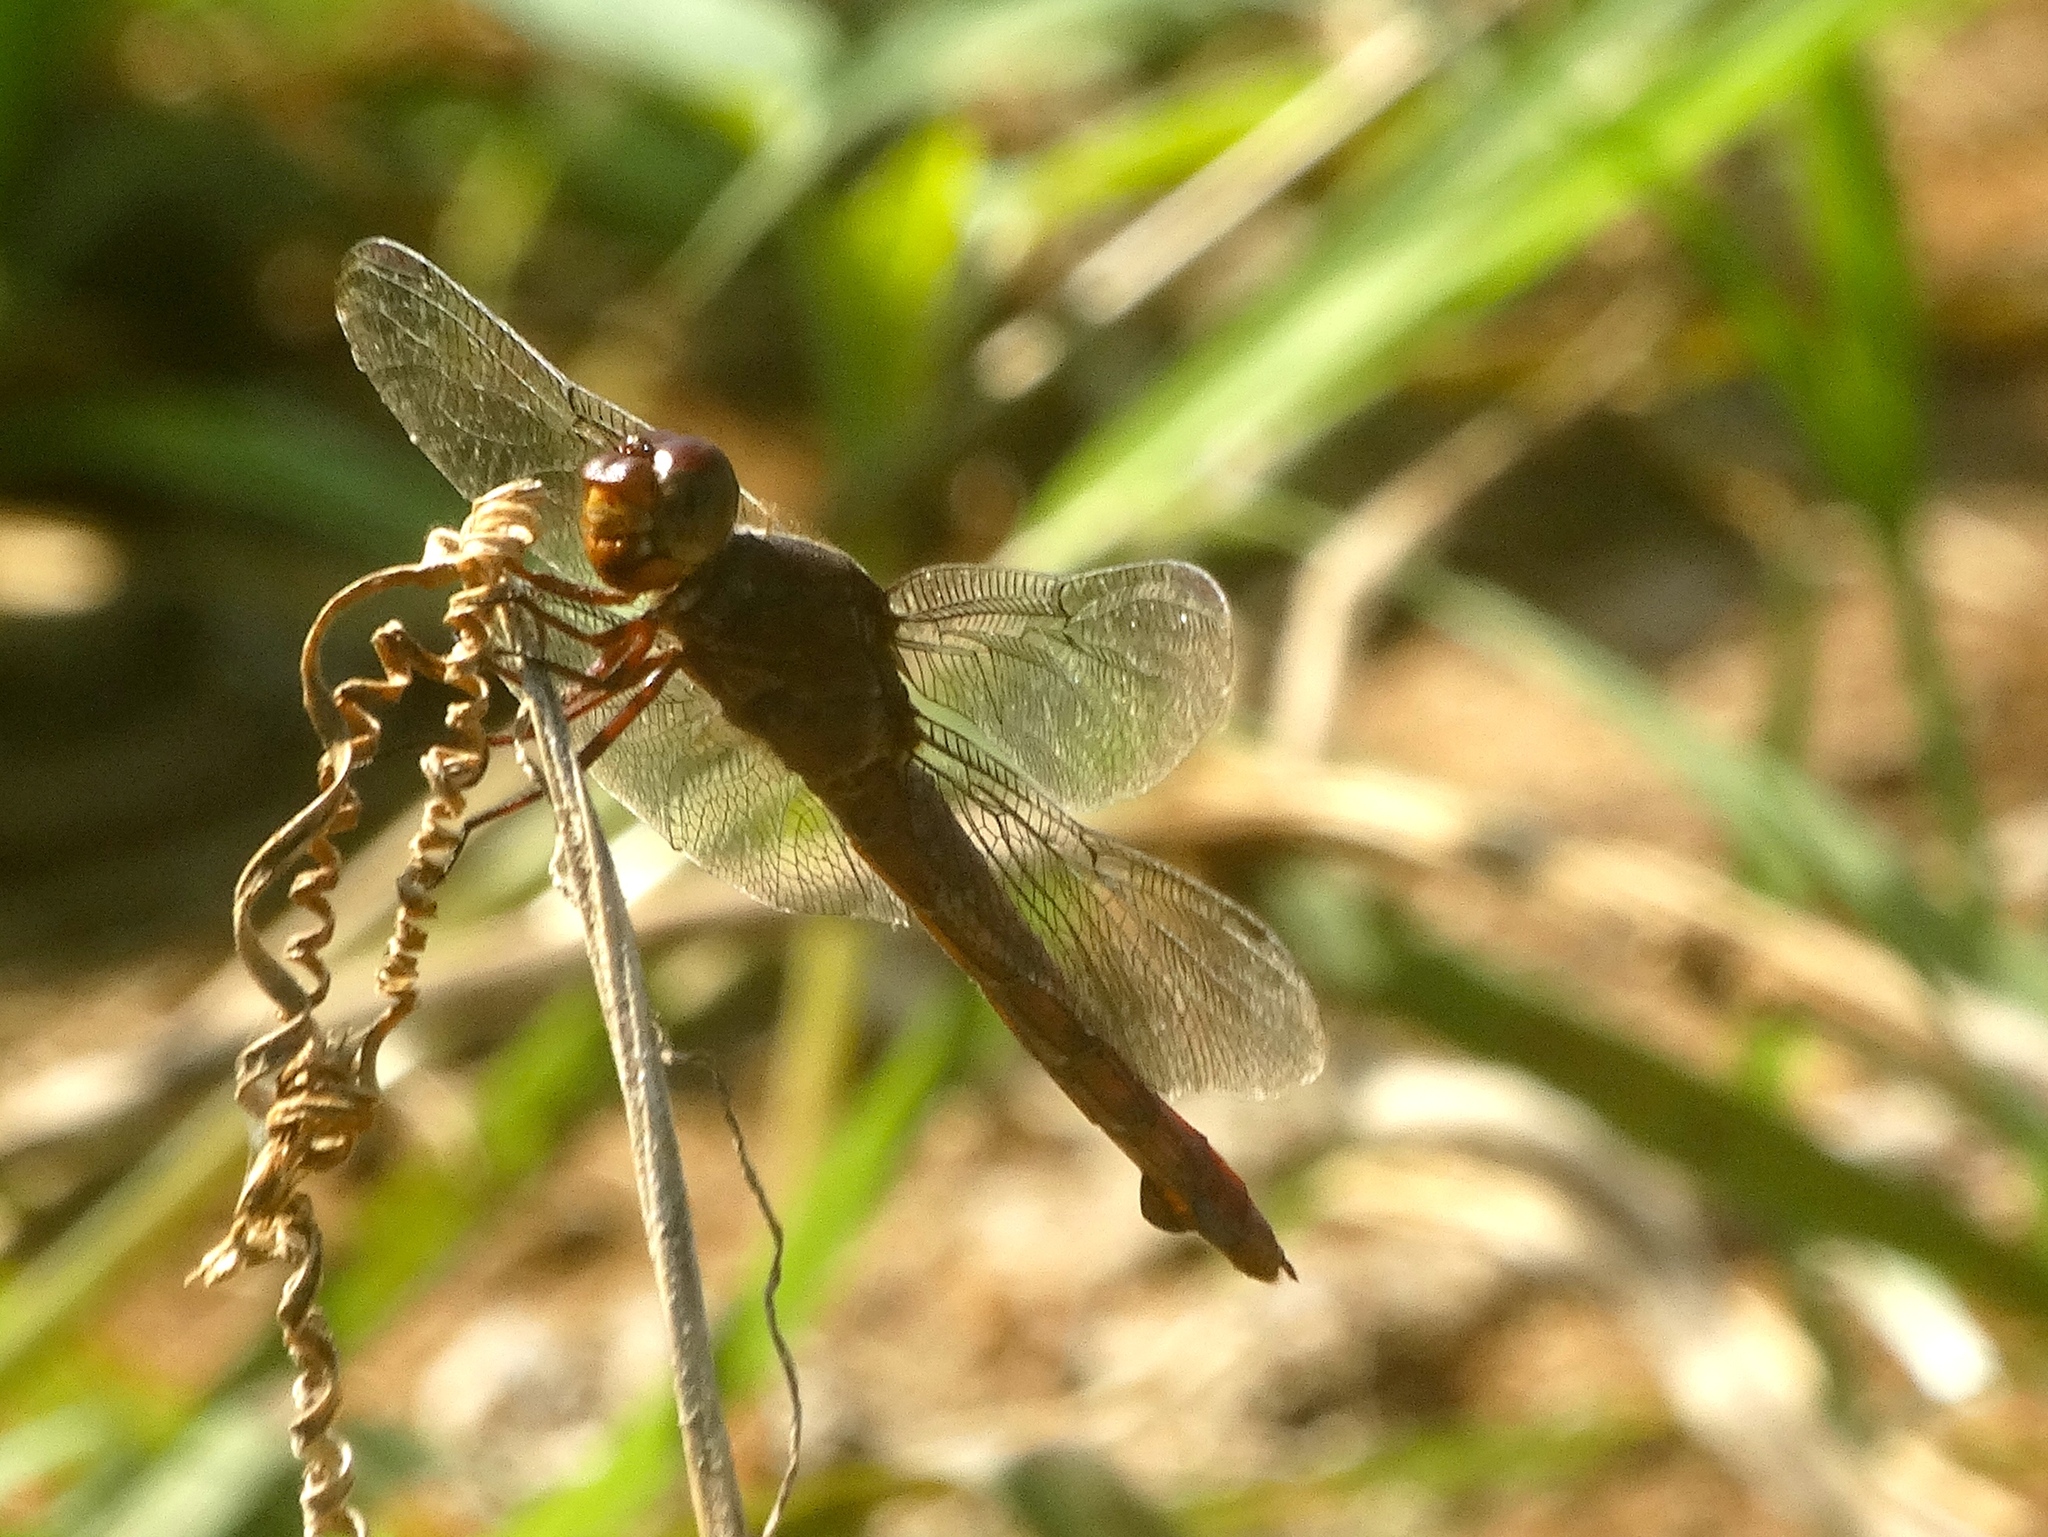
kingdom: Animalia
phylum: Arthropoda
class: Insecta
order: Odonata
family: Libellulidae
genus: Orthemis
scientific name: Orthemis
